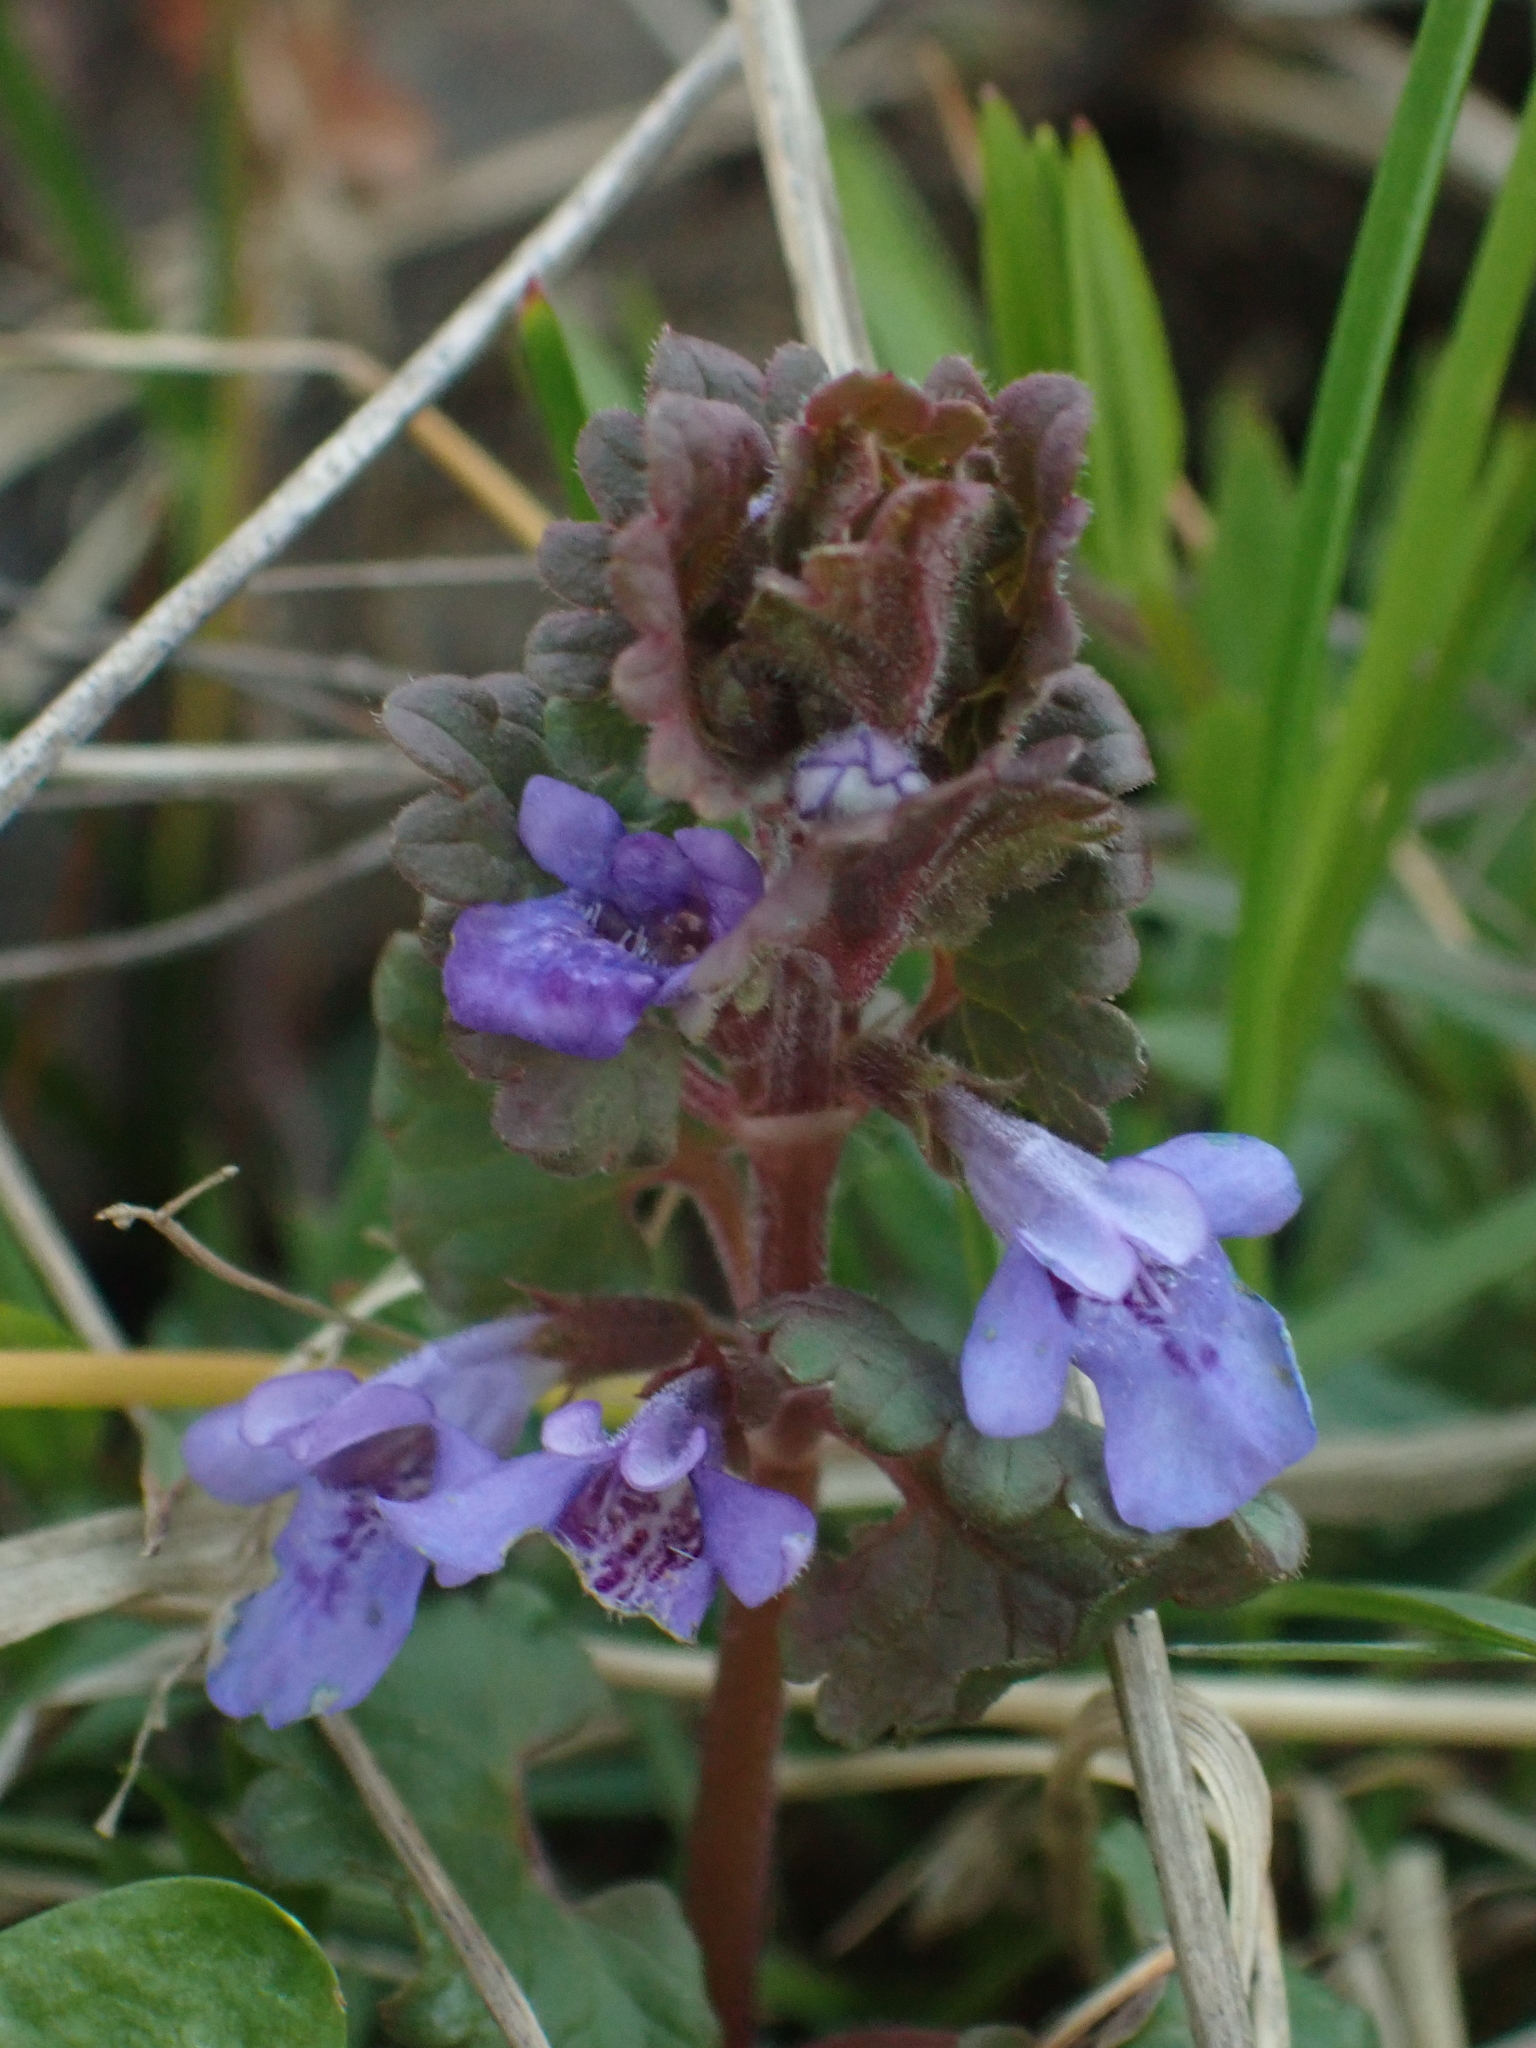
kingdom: Plantae
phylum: Tracheophyta
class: Magnoliopsida
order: Lamiales
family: Lamiaceae
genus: Glechoma
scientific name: Glechoma hederacea
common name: Ground ivy
